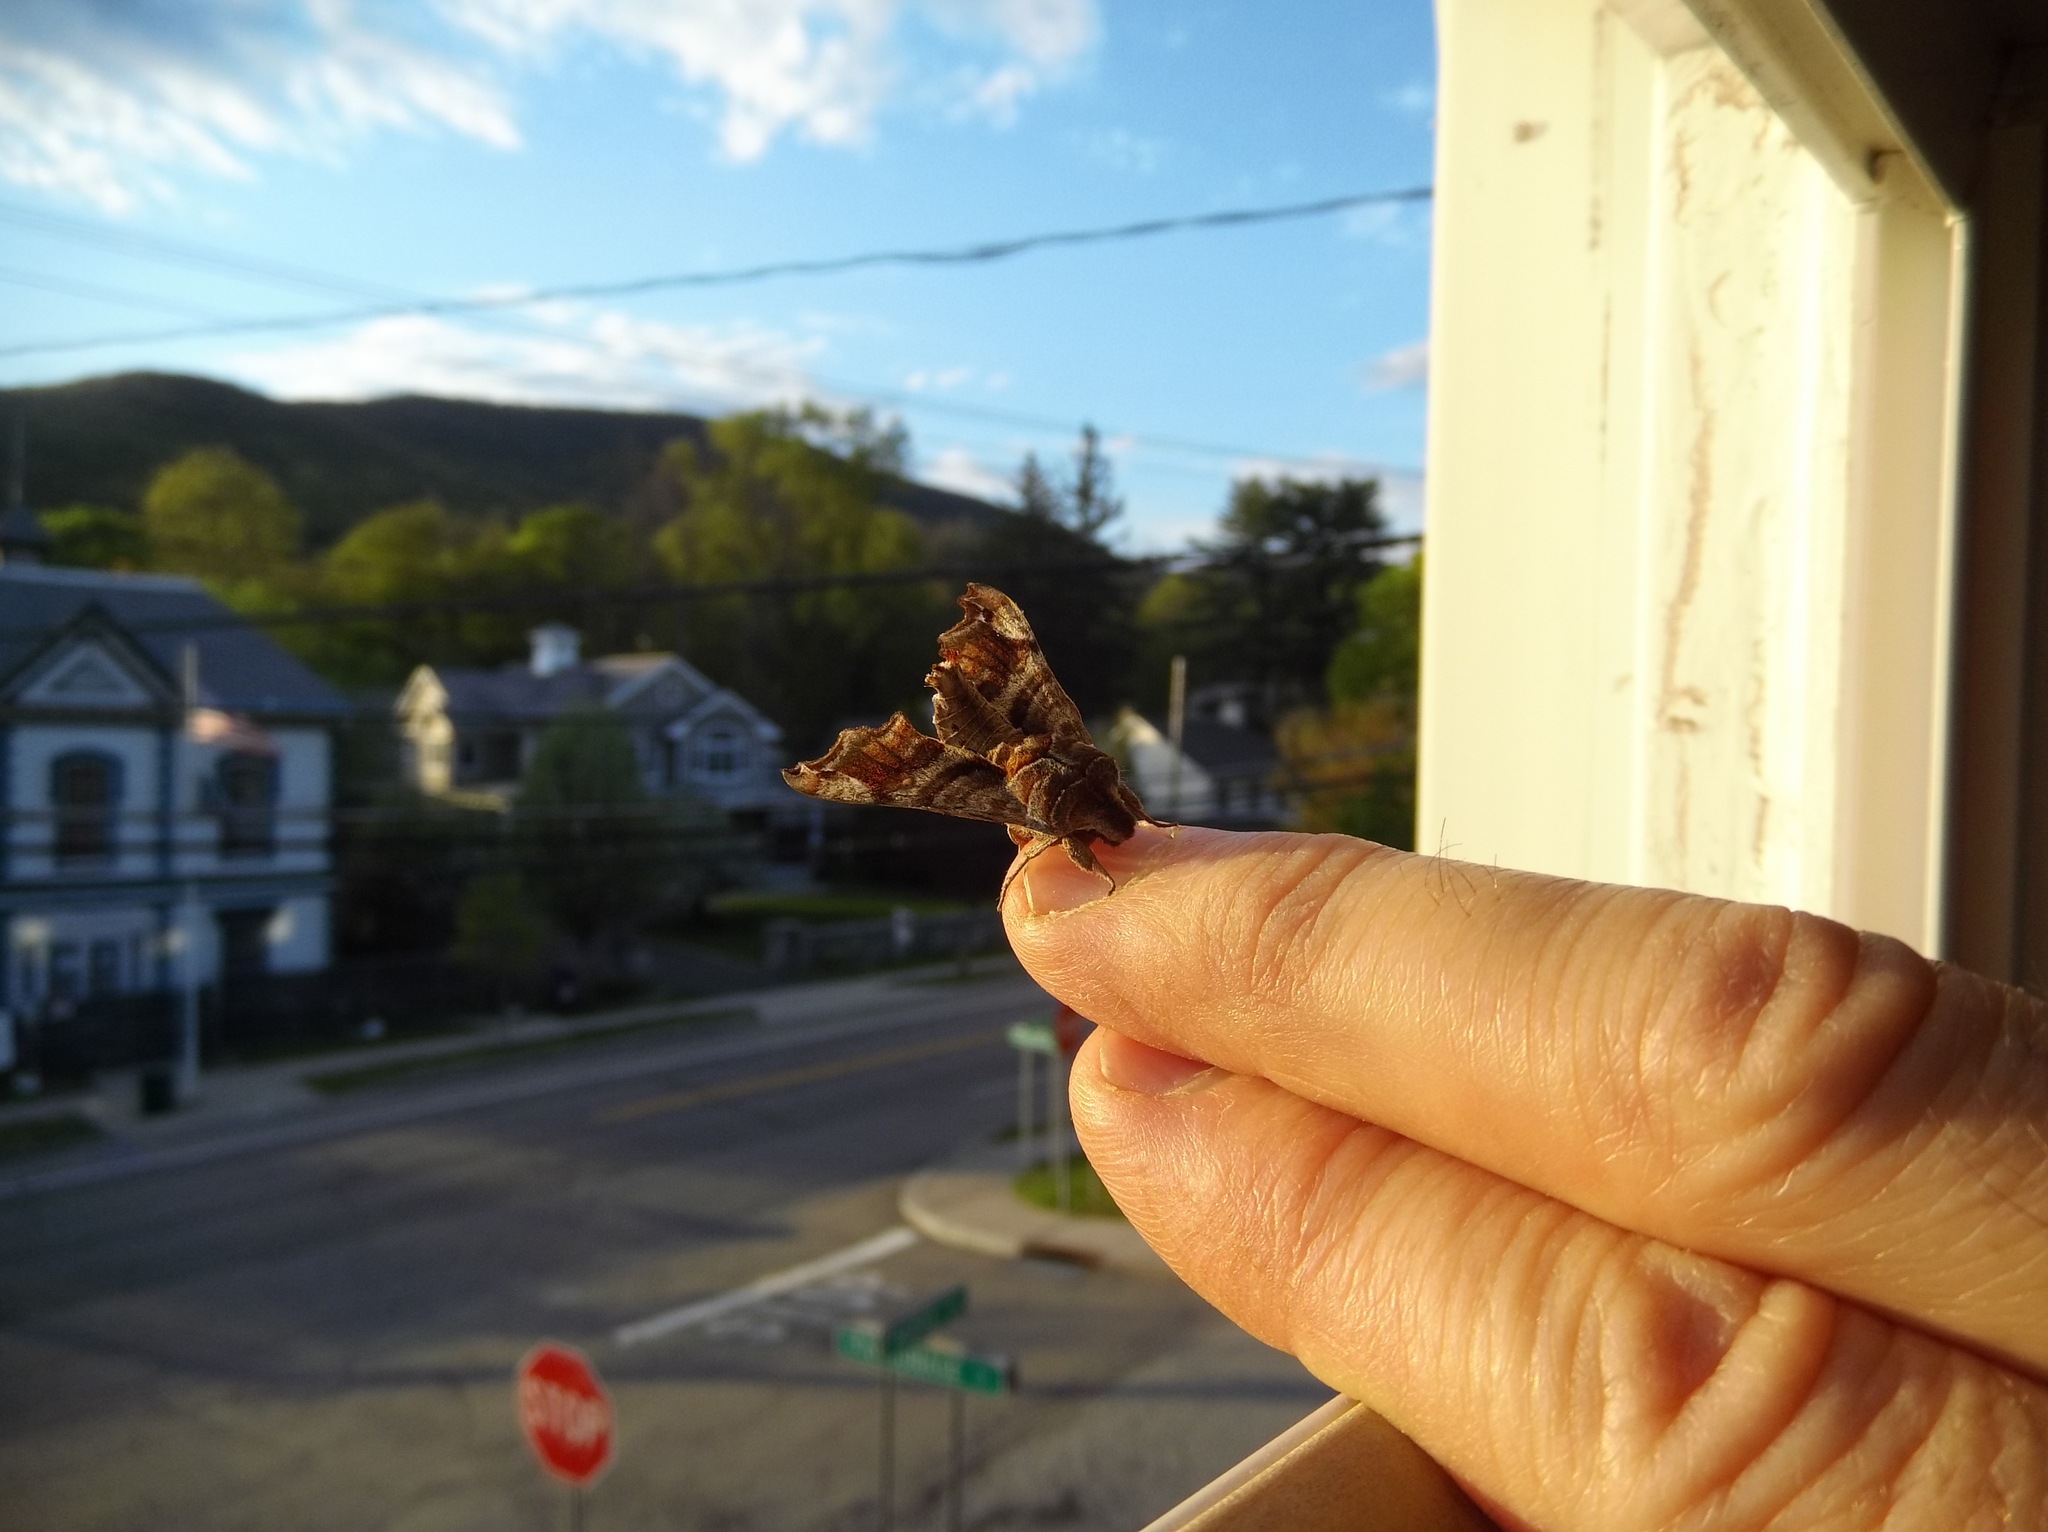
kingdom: Animalia
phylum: Arthropoda
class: Insecta
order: Lepidoptera
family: Sphingidae
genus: Deidamia
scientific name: Deidamia inscriptum
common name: Lettered sphinx
